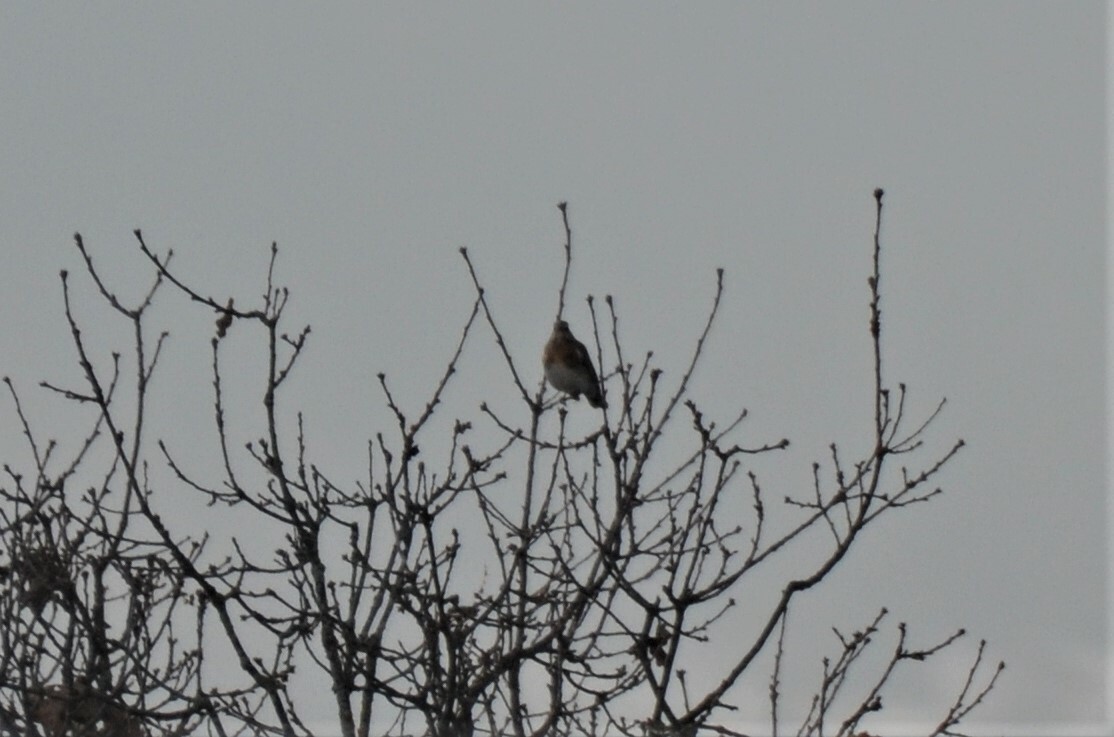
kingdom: Animalia
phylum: Chordata
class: Aves
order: Passeriformes
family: Turdidae
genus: Turdus
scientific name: Turdus pilaris
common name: Fieldfare
